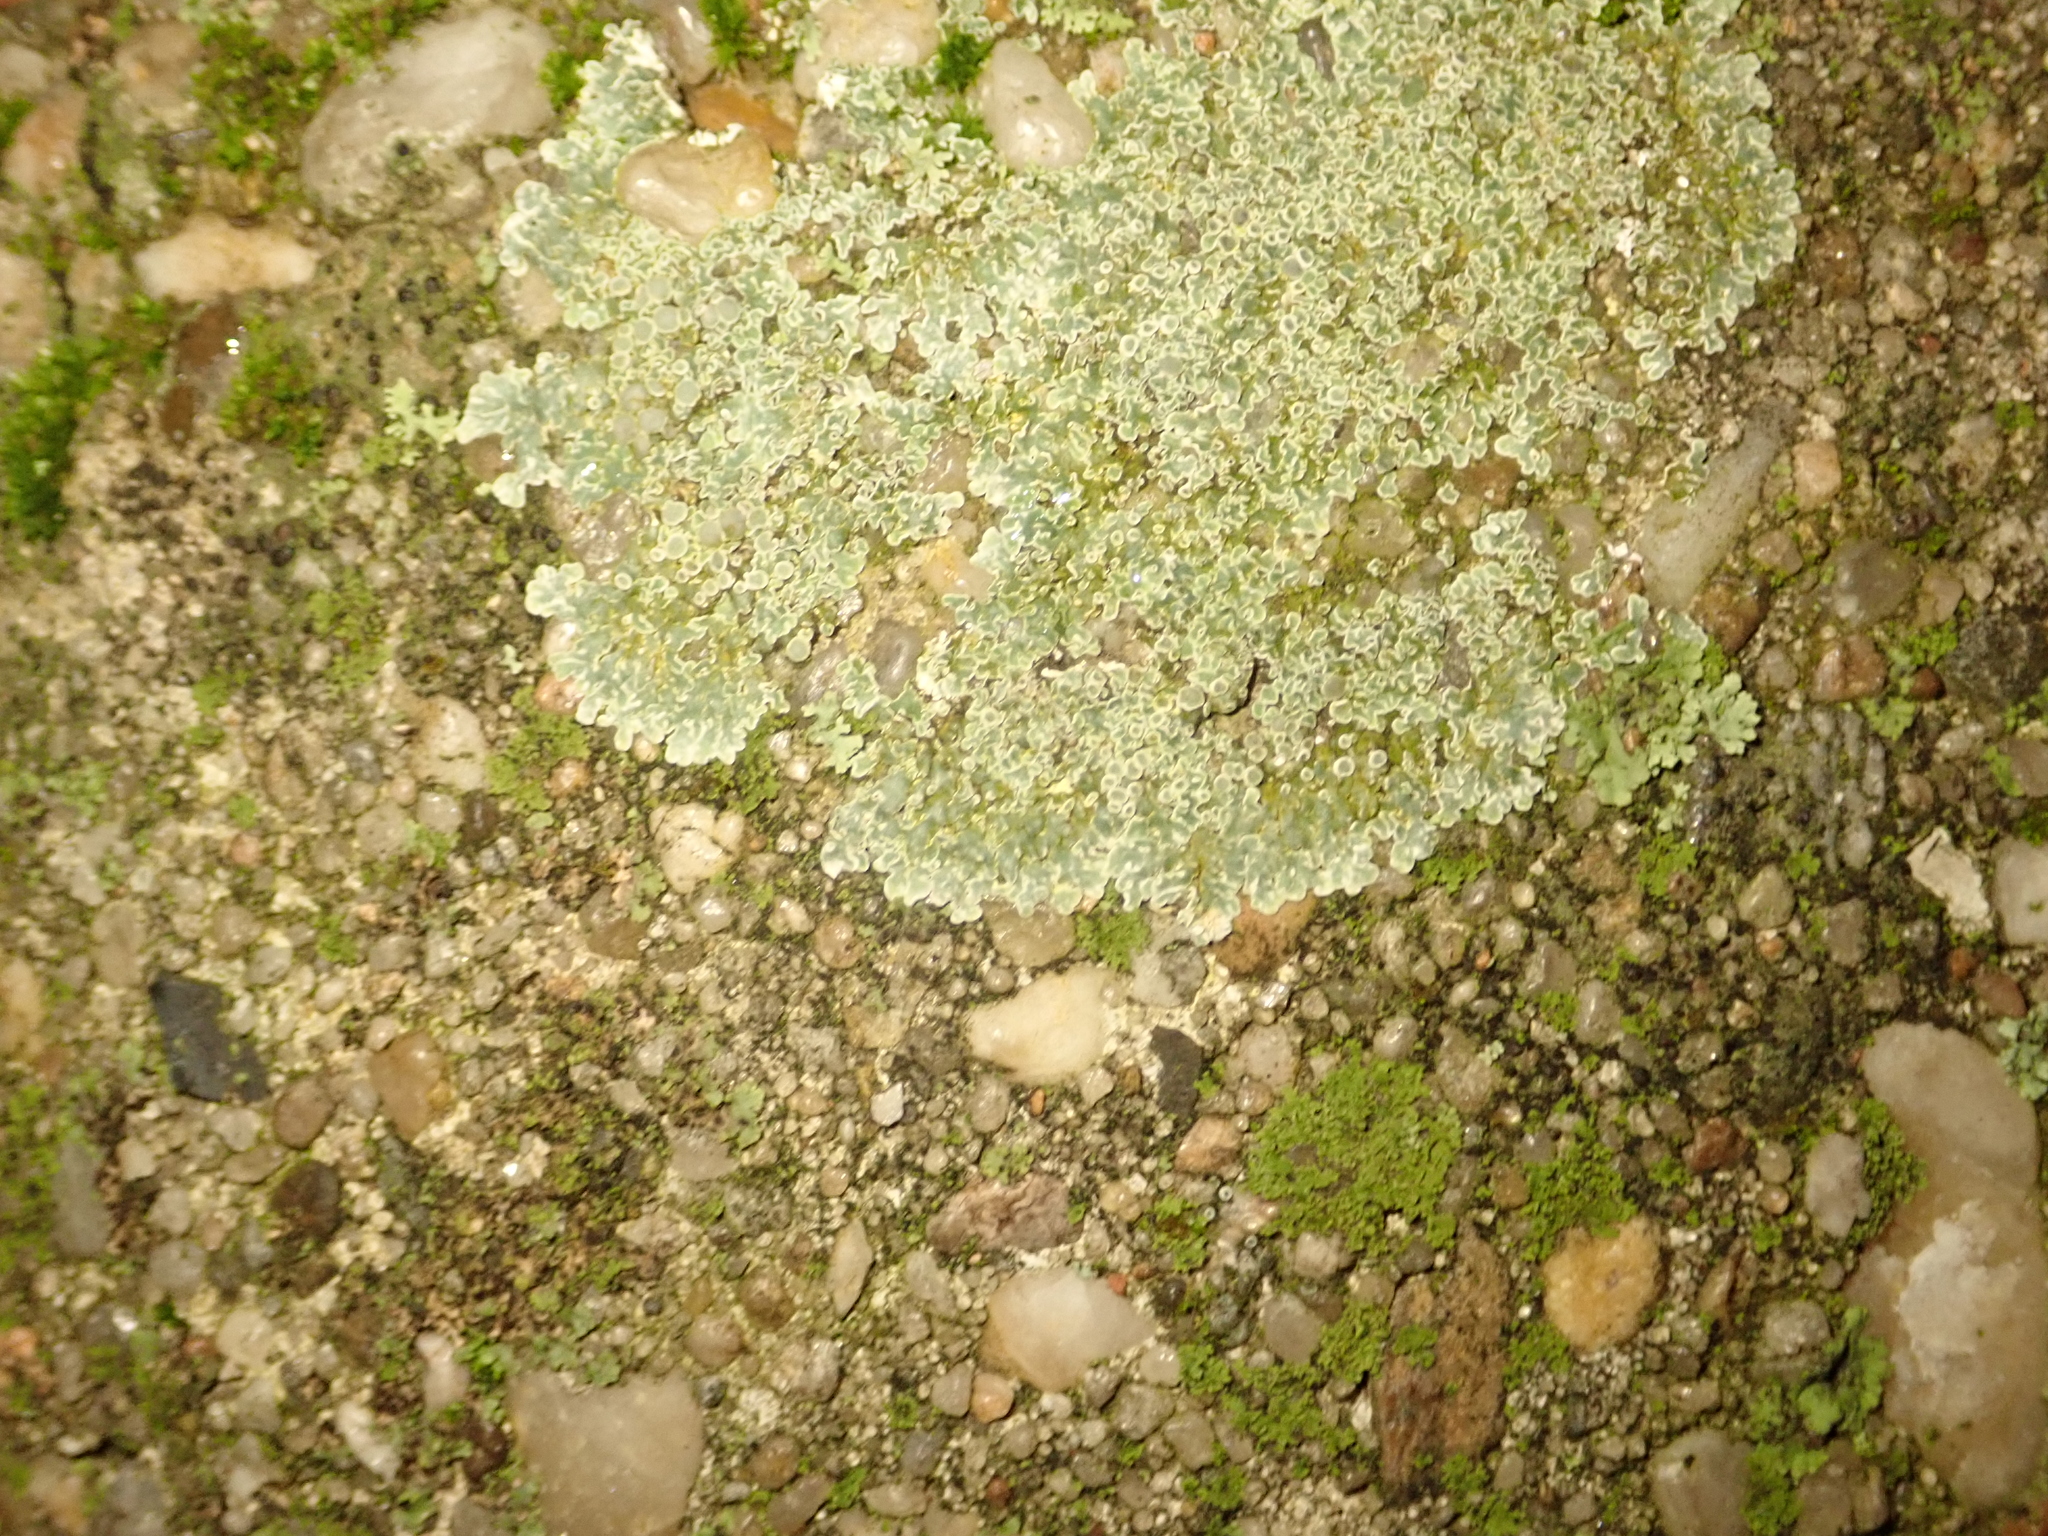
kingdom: Fungi
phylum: Ascomycota
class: Lecanoromycetes
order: Lecanorales
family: Lecanoraceae
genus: Protoparmeliopsis
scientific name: Protoparmeliopsis muralis
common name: Stonewall rim lichen
